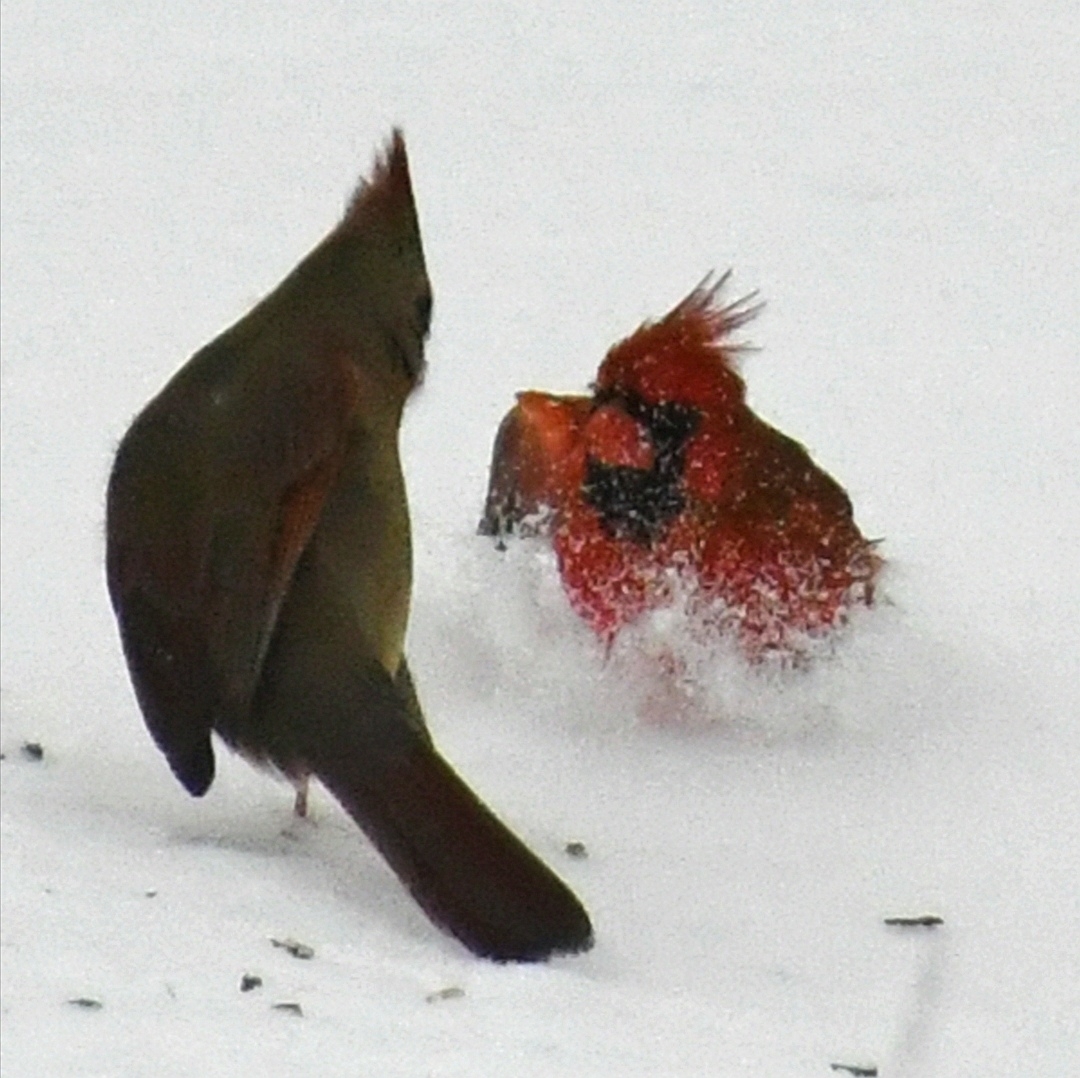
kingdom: Animalia
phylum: Chordata
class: Aves
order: Passeriformes
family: Cardinalidae
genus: Cardinalis
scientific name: Cardinalis cardinalis
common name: Northern cardinal
